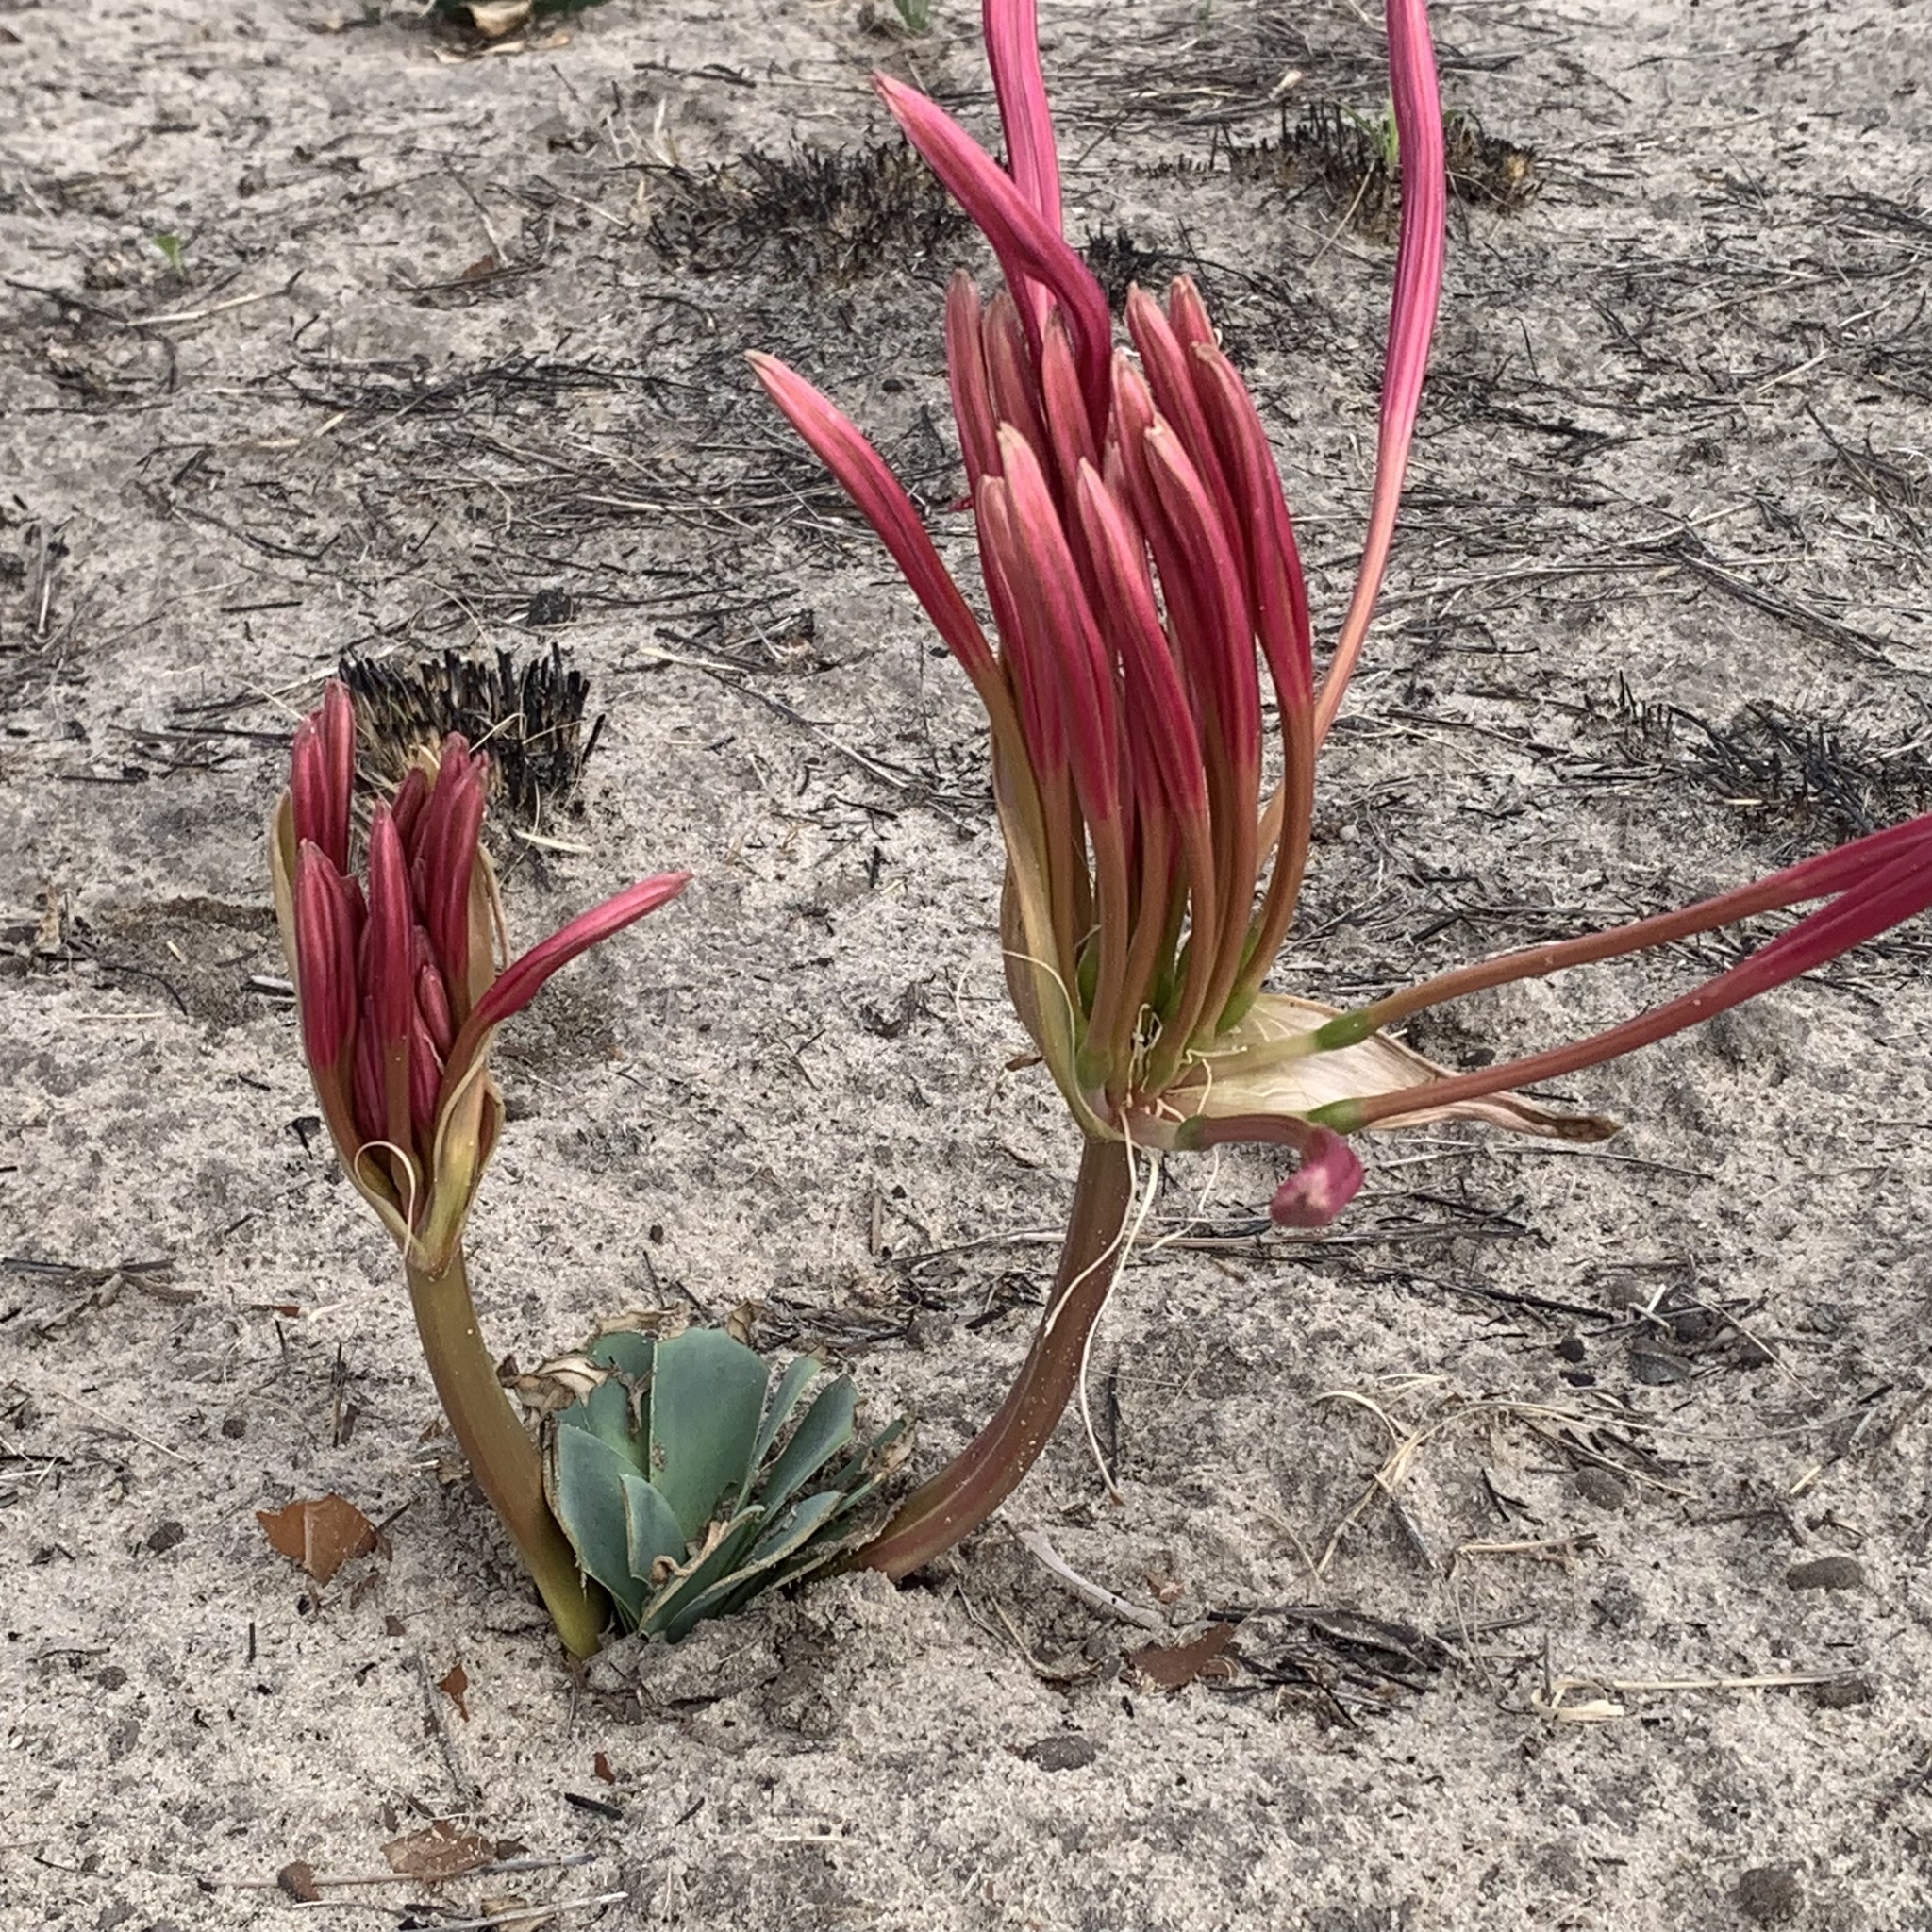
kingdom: Plantae
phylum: Tracheophyta
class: Liliopsida
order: Asparagales
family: Amaryllidaceae
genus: Ammocharis
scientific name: Ammocharis tinneana
